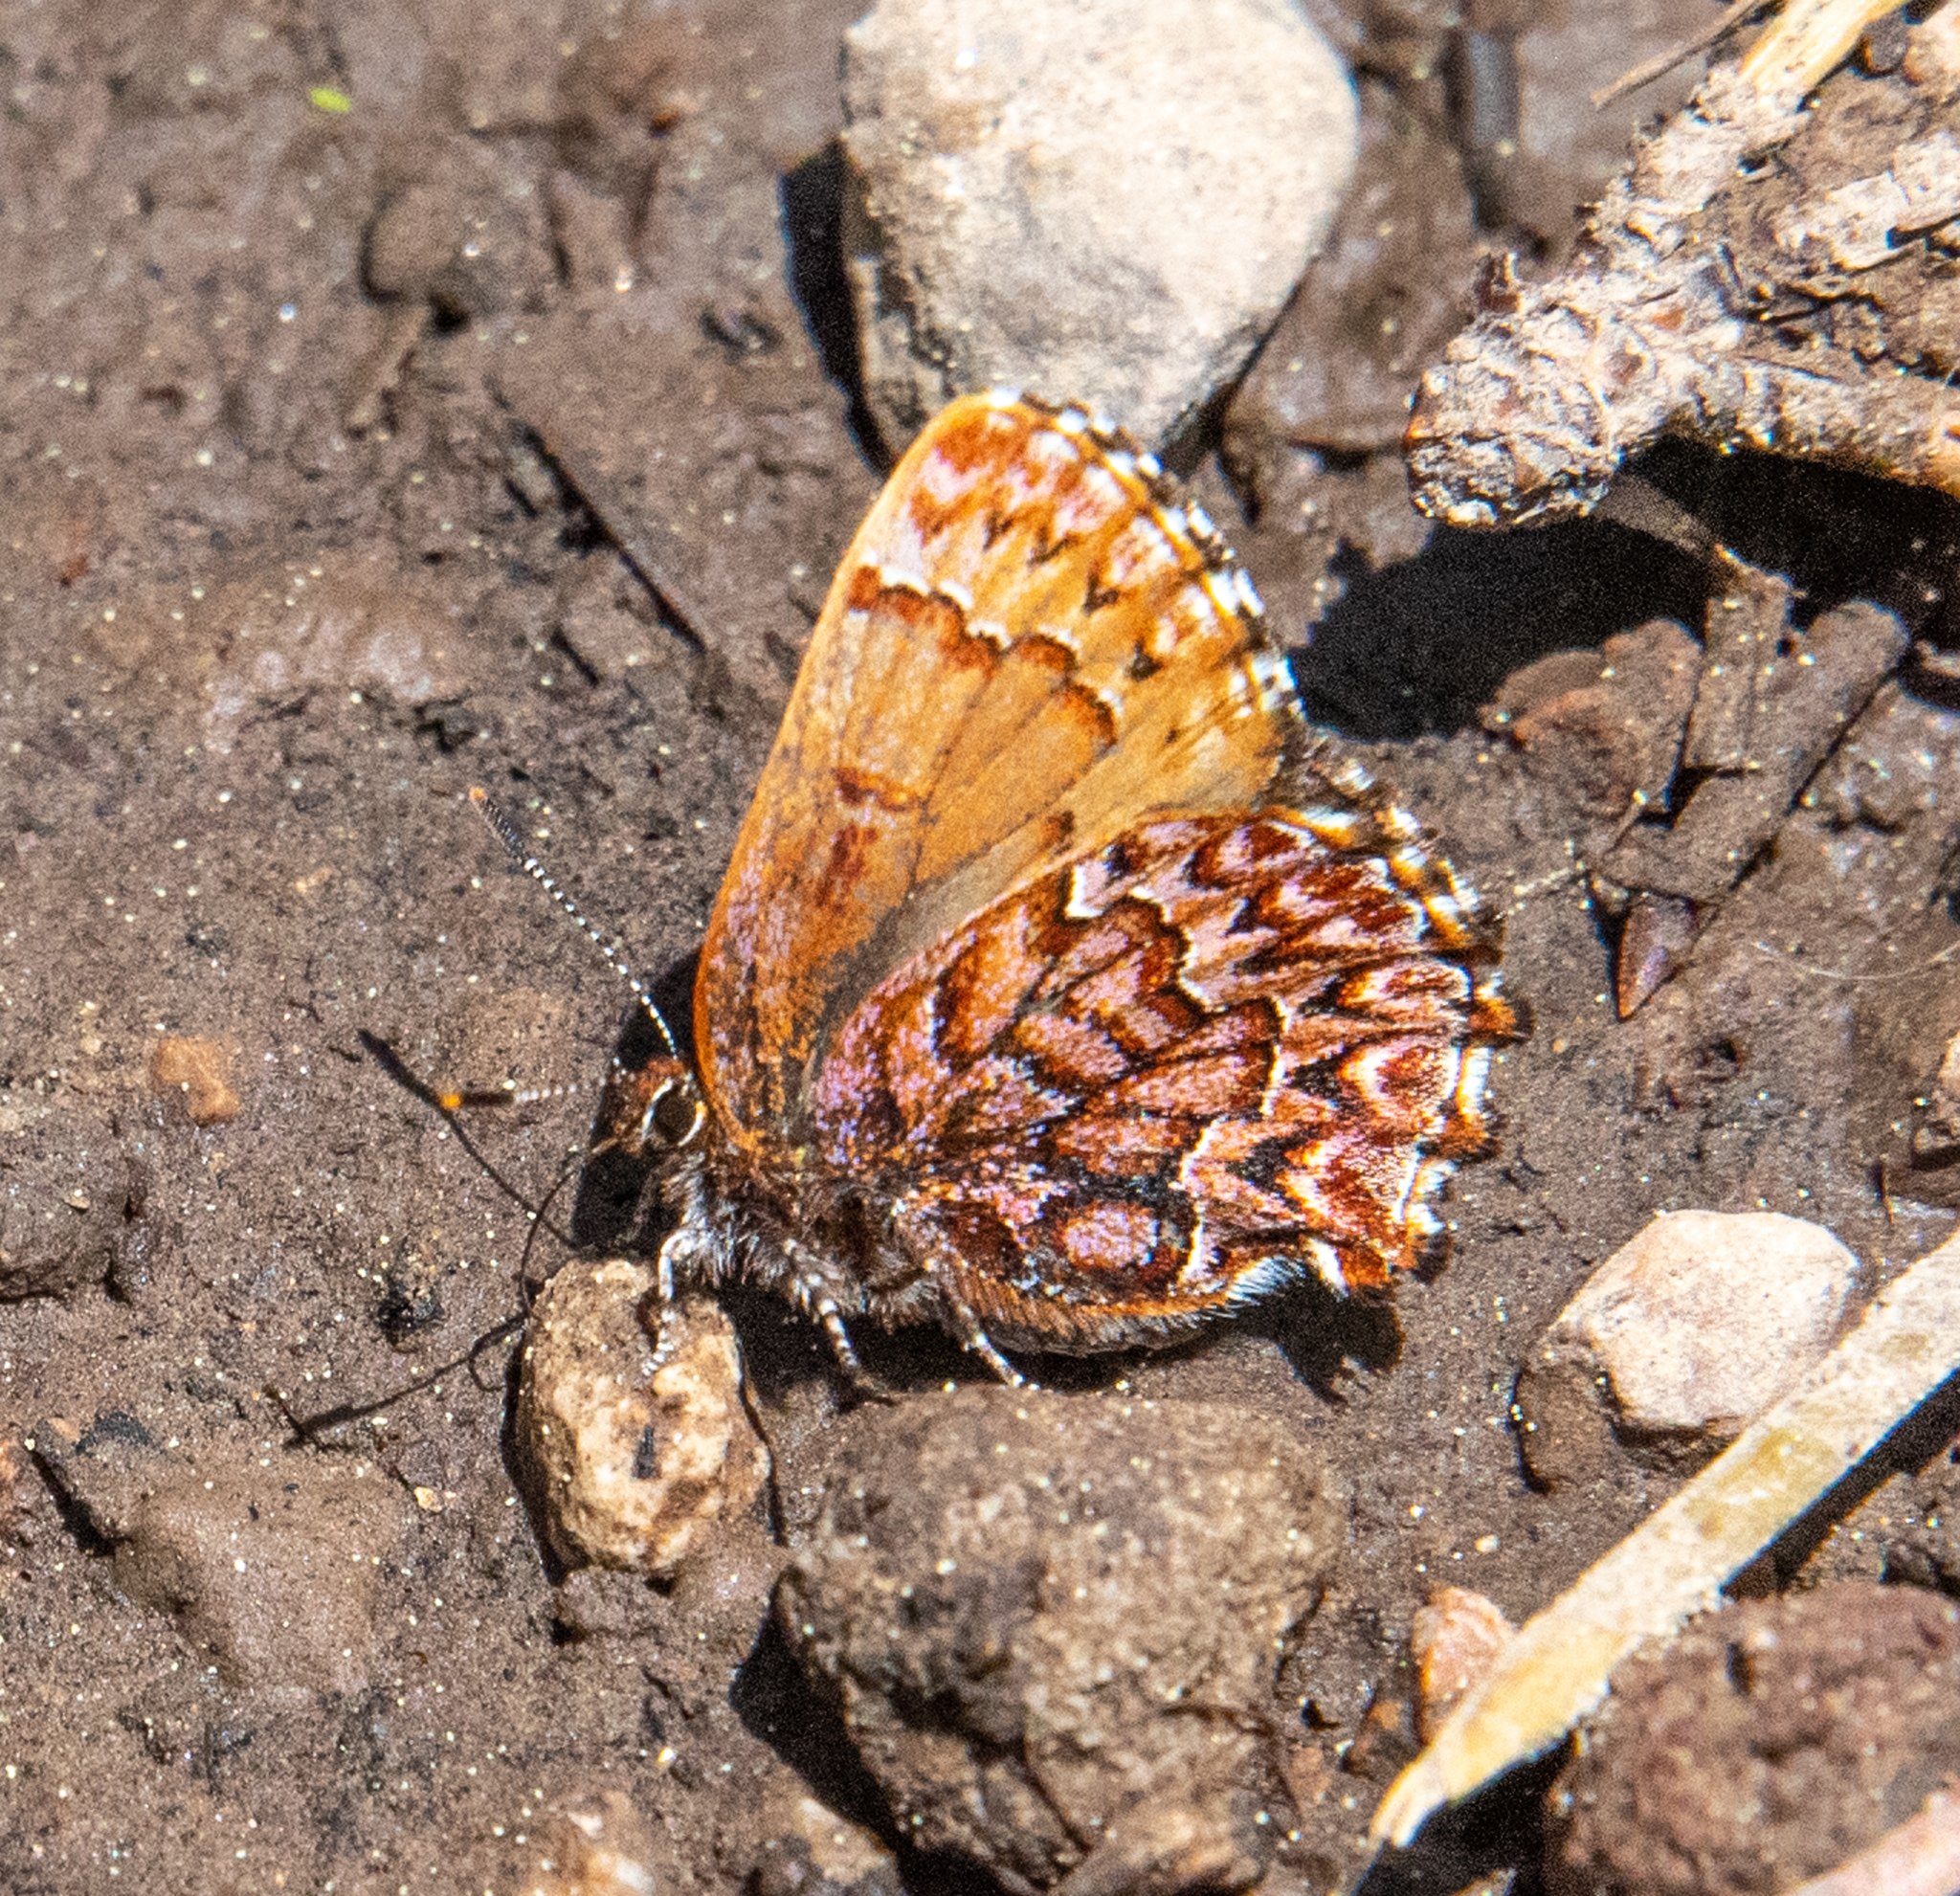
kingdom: Animalia
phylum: Arthropoda
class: Insecta
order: Lepidoptera
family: Lycaenidae
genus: Incisalia
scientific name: Incisalia eryphon
